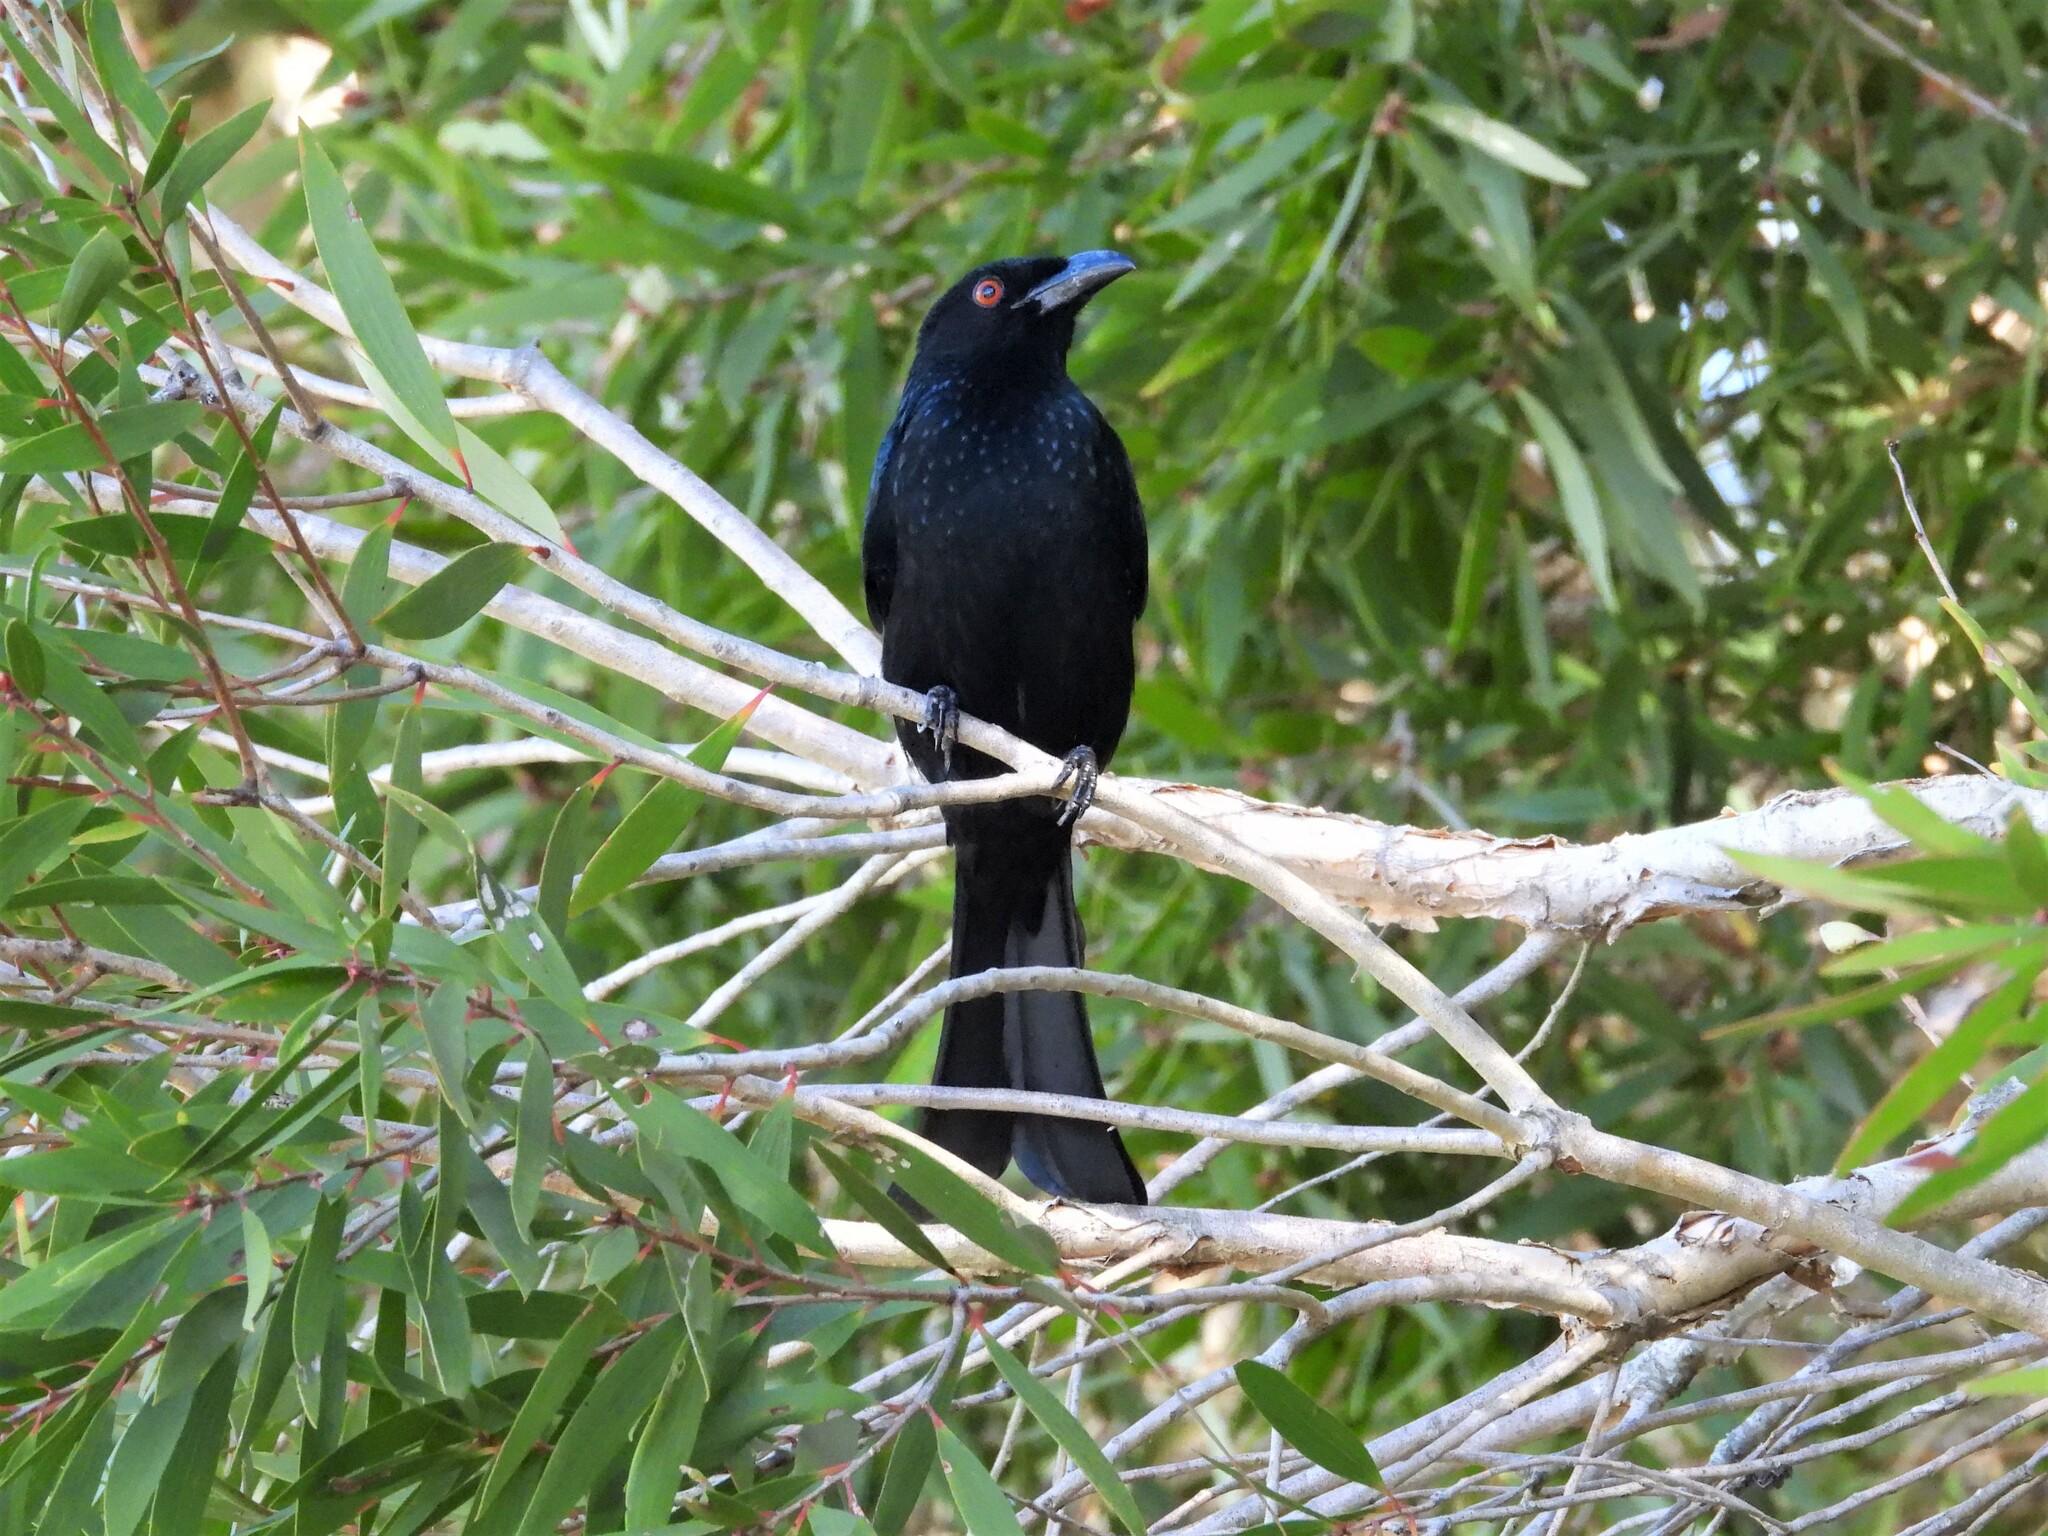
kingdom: Animalia
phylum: Chordata
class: Aves
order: Passeriformes
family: Dicruridae
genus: Dicrurus
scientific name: Dicrurus bracteatus
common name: Spangled drongo
